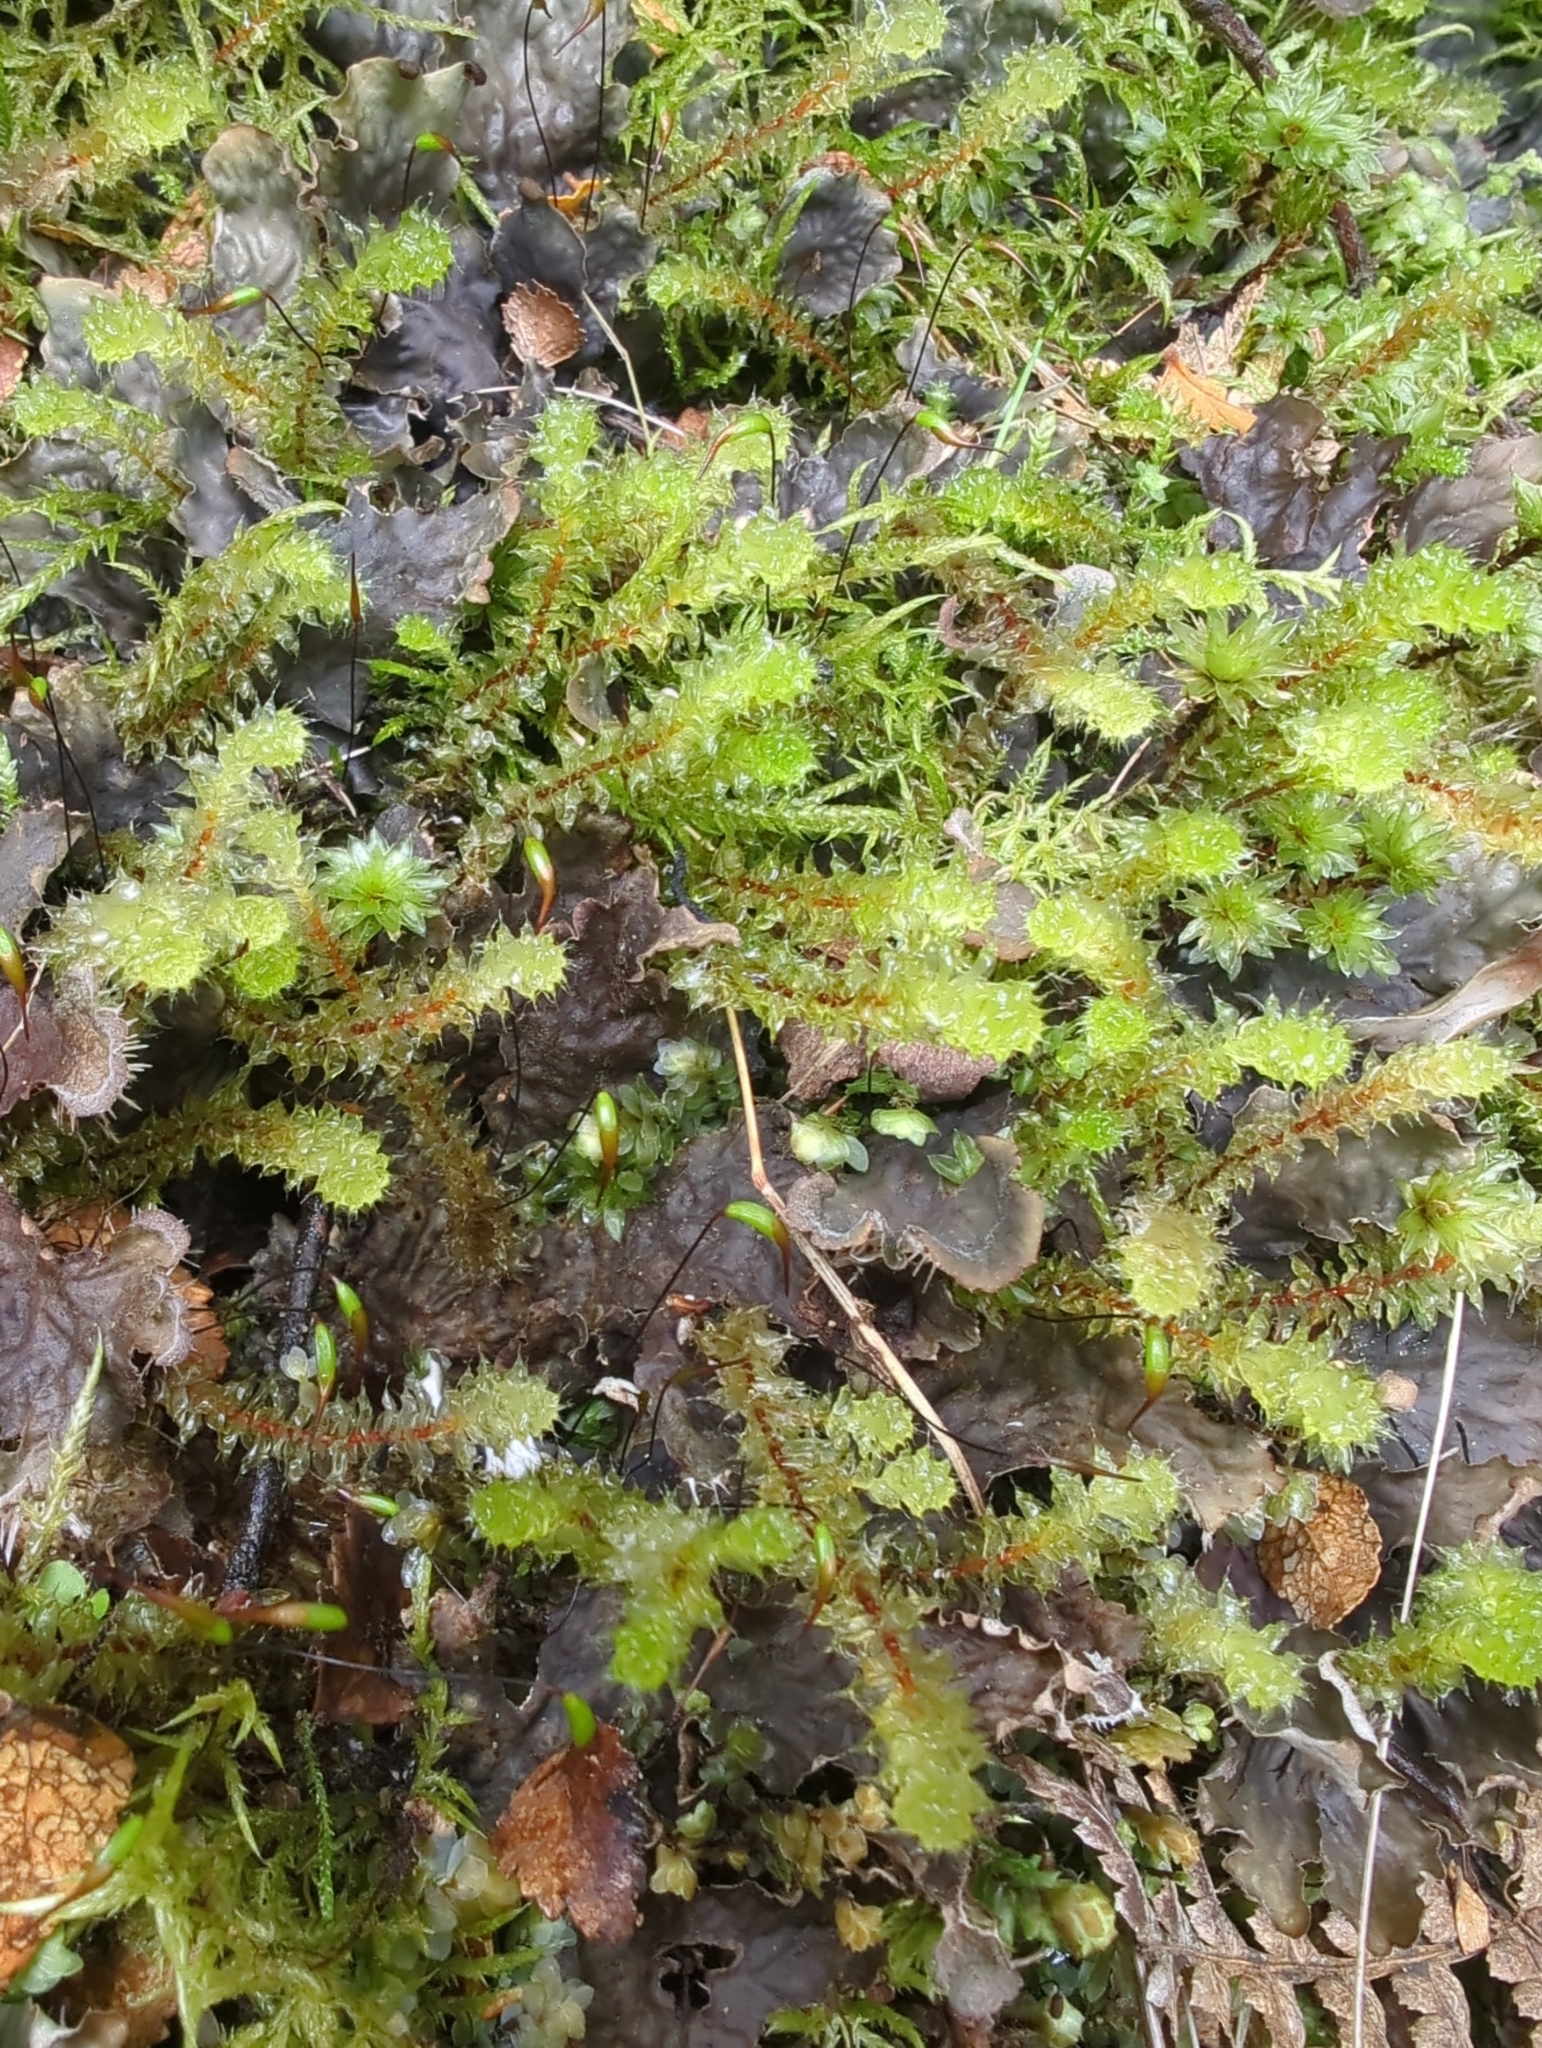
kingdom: Plantae
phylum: Bryophyta
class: Bryopsida
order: Ptychomniales
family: Ptychomniaceae
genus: Ptychomnion
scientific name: Ptychomnion aciculare
